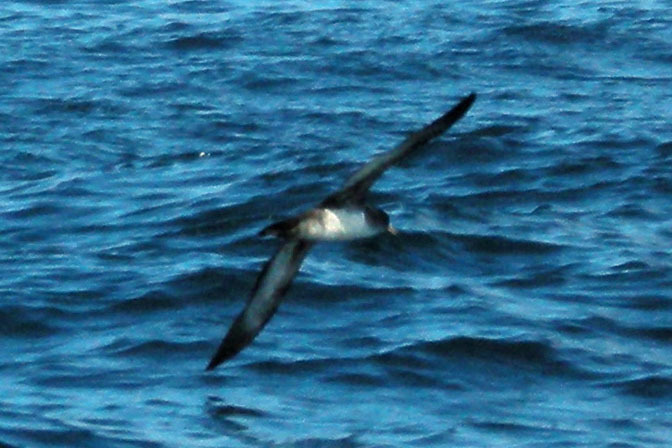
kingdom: Animalia
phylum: Chordata
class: Aves
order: Procellariiformes
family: Procellariidae
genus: Puffinus
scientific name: Puffinus creatopus
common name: Pink-footed shearwater
